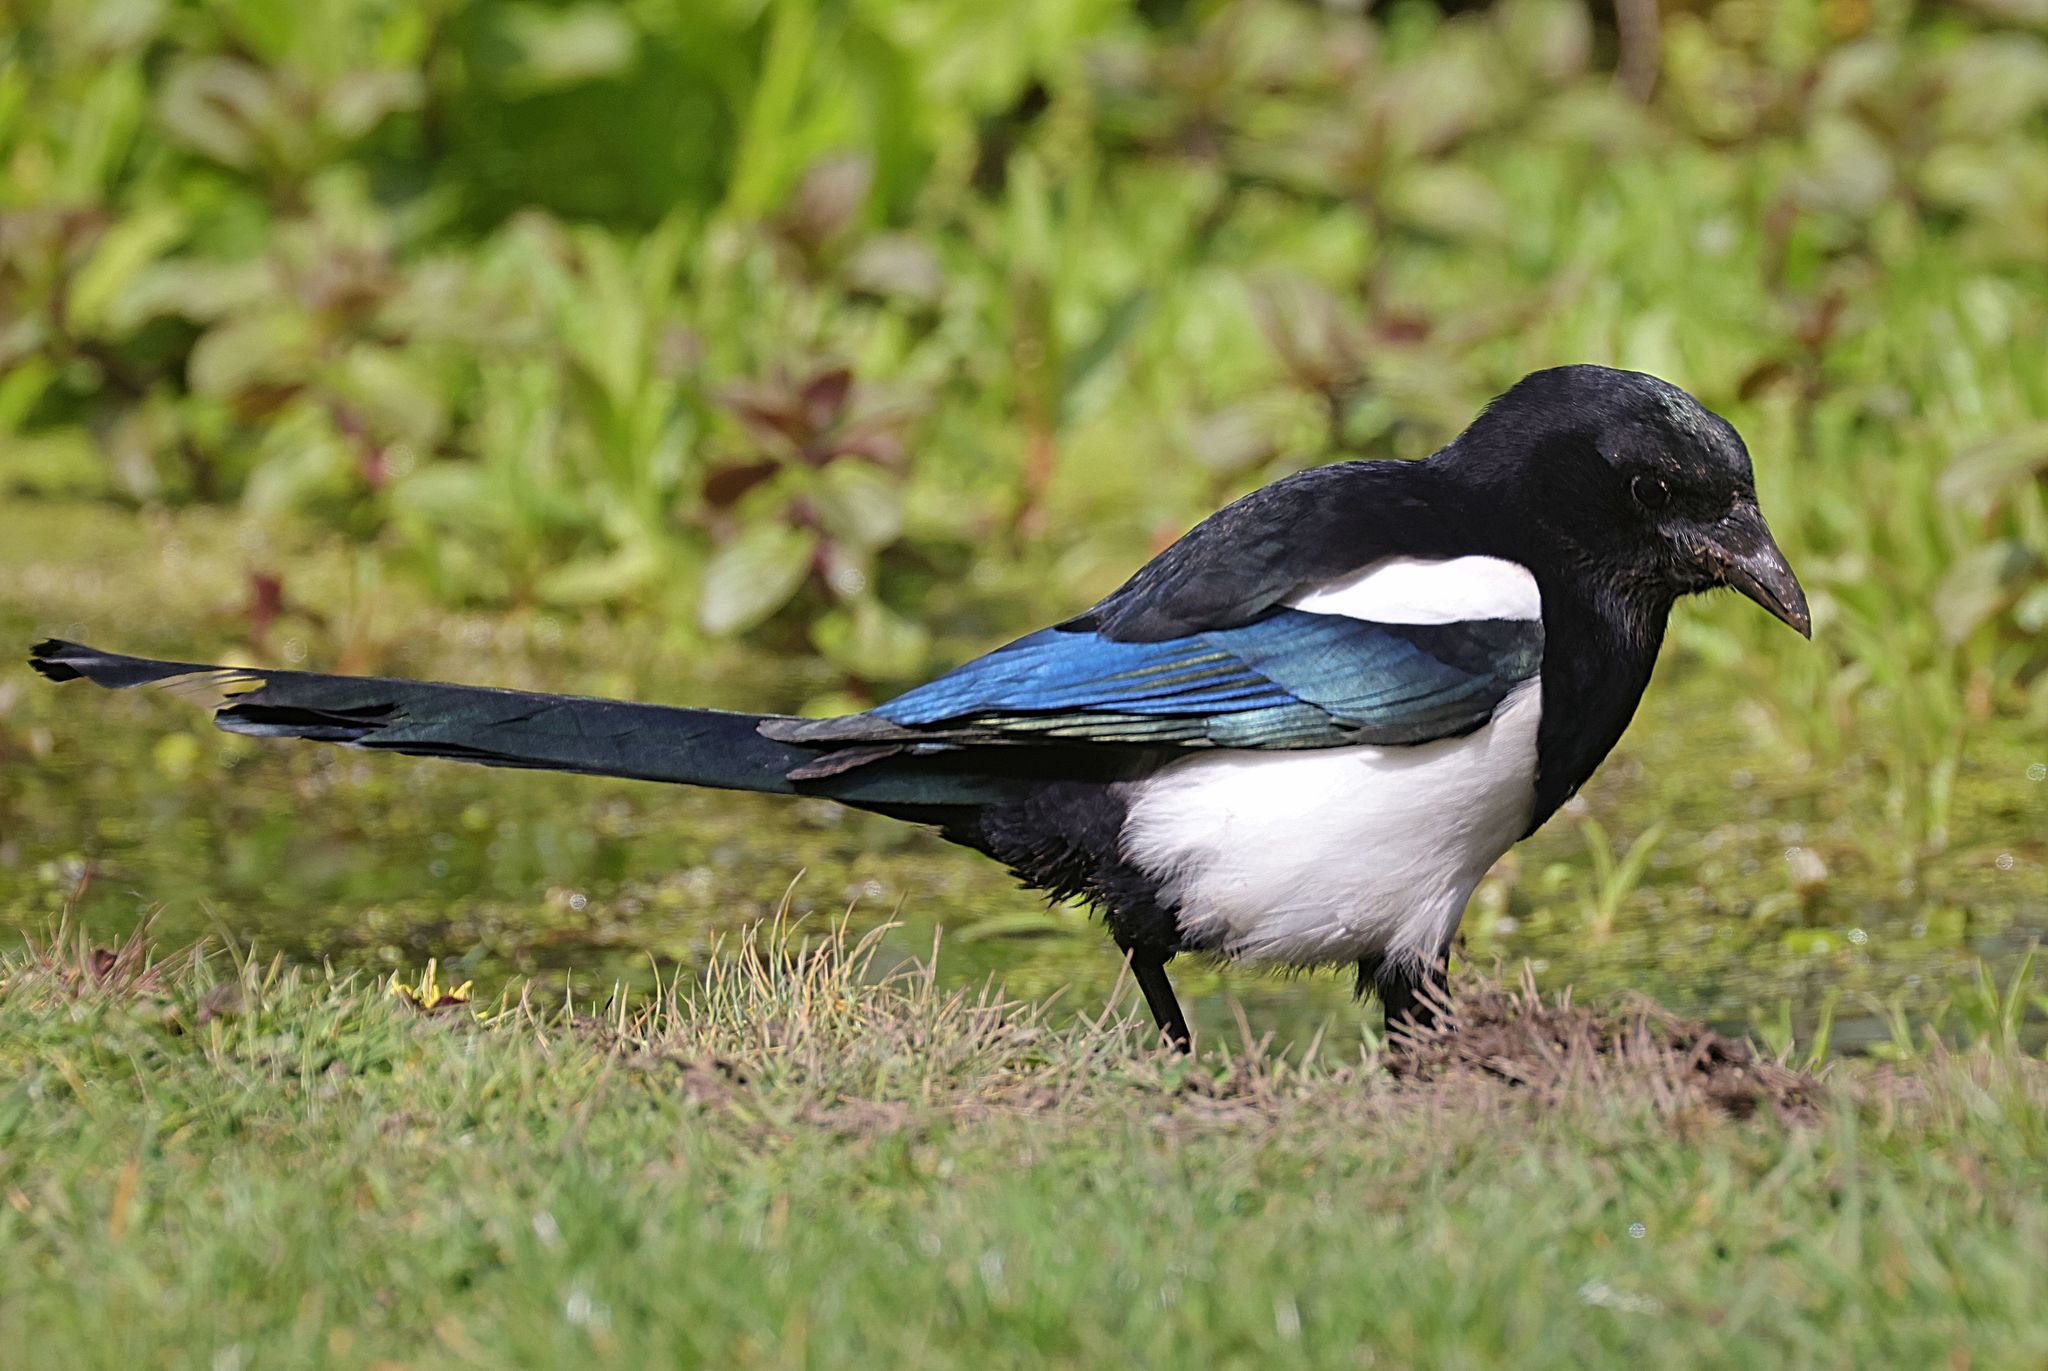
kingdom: Animalia
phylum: Chordata
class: Aves
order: Passeriformes
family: Corvidae
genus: Pica
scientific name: Pica pica
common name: Eurasian magpie
